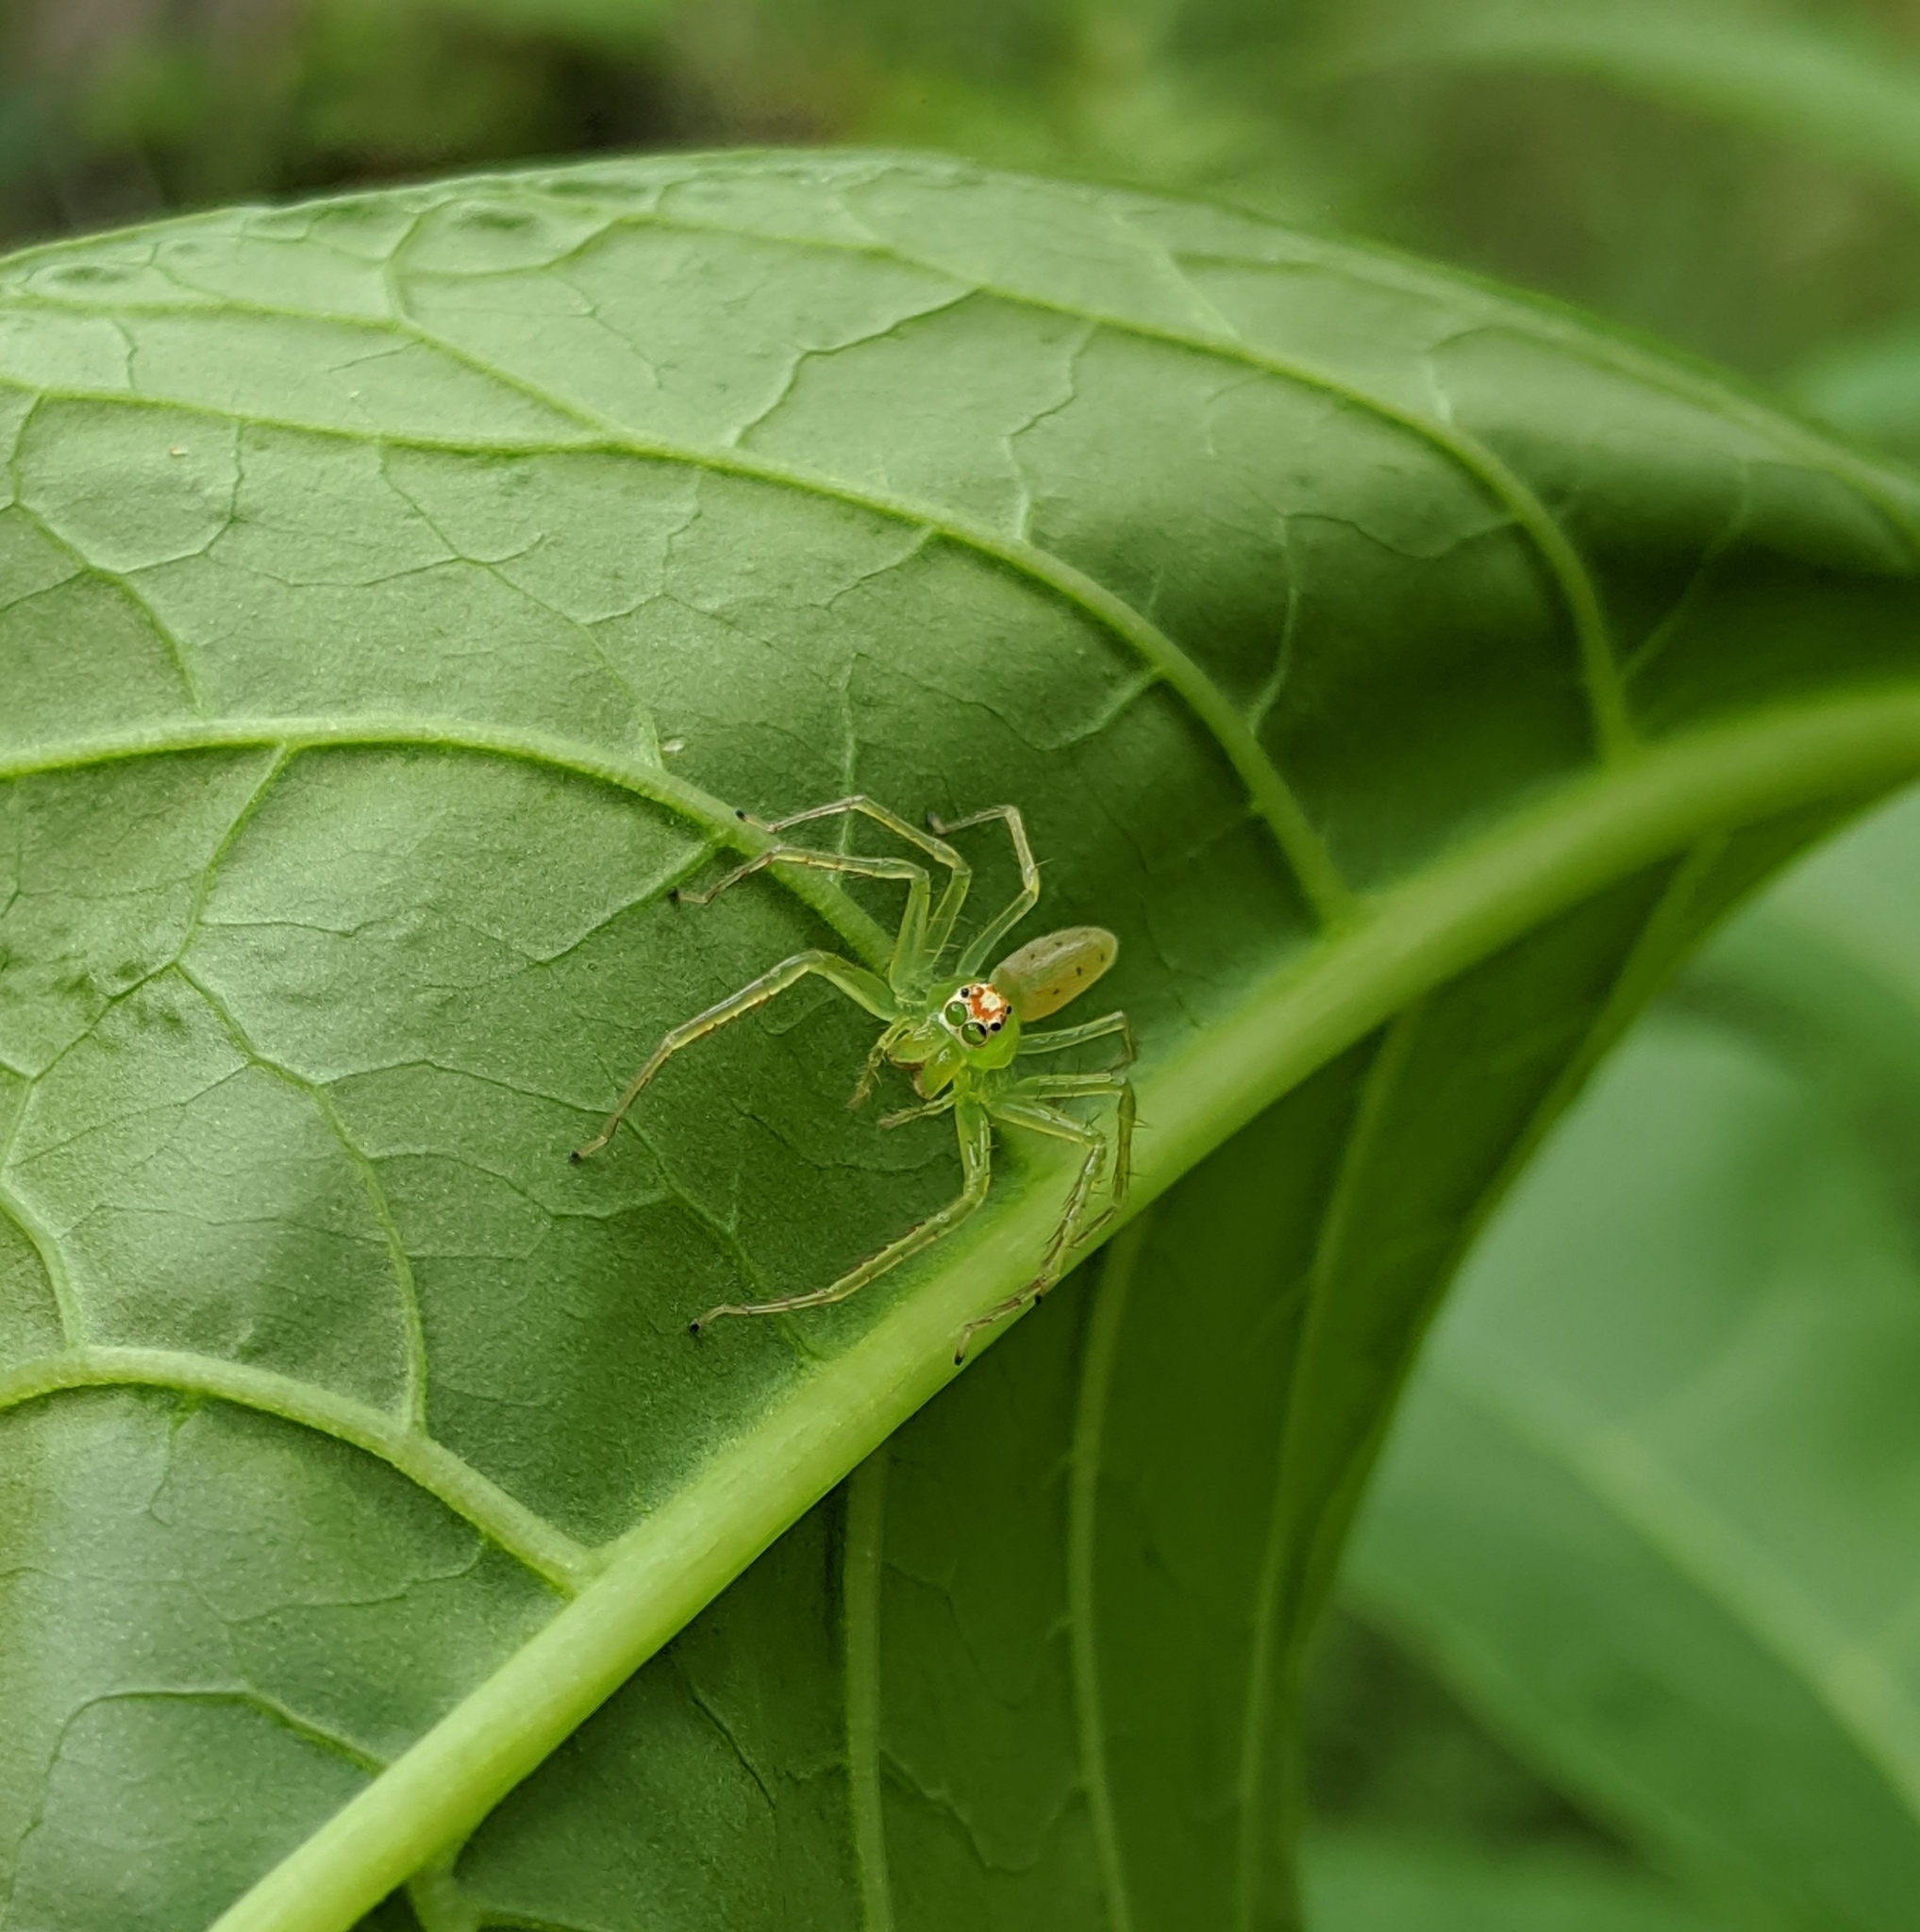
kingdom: Animalia
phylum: Arthropoda
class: Arachnida
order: Araneae
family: Salticidae
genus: Lyssomanes
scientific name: Lyssomanes viridis
